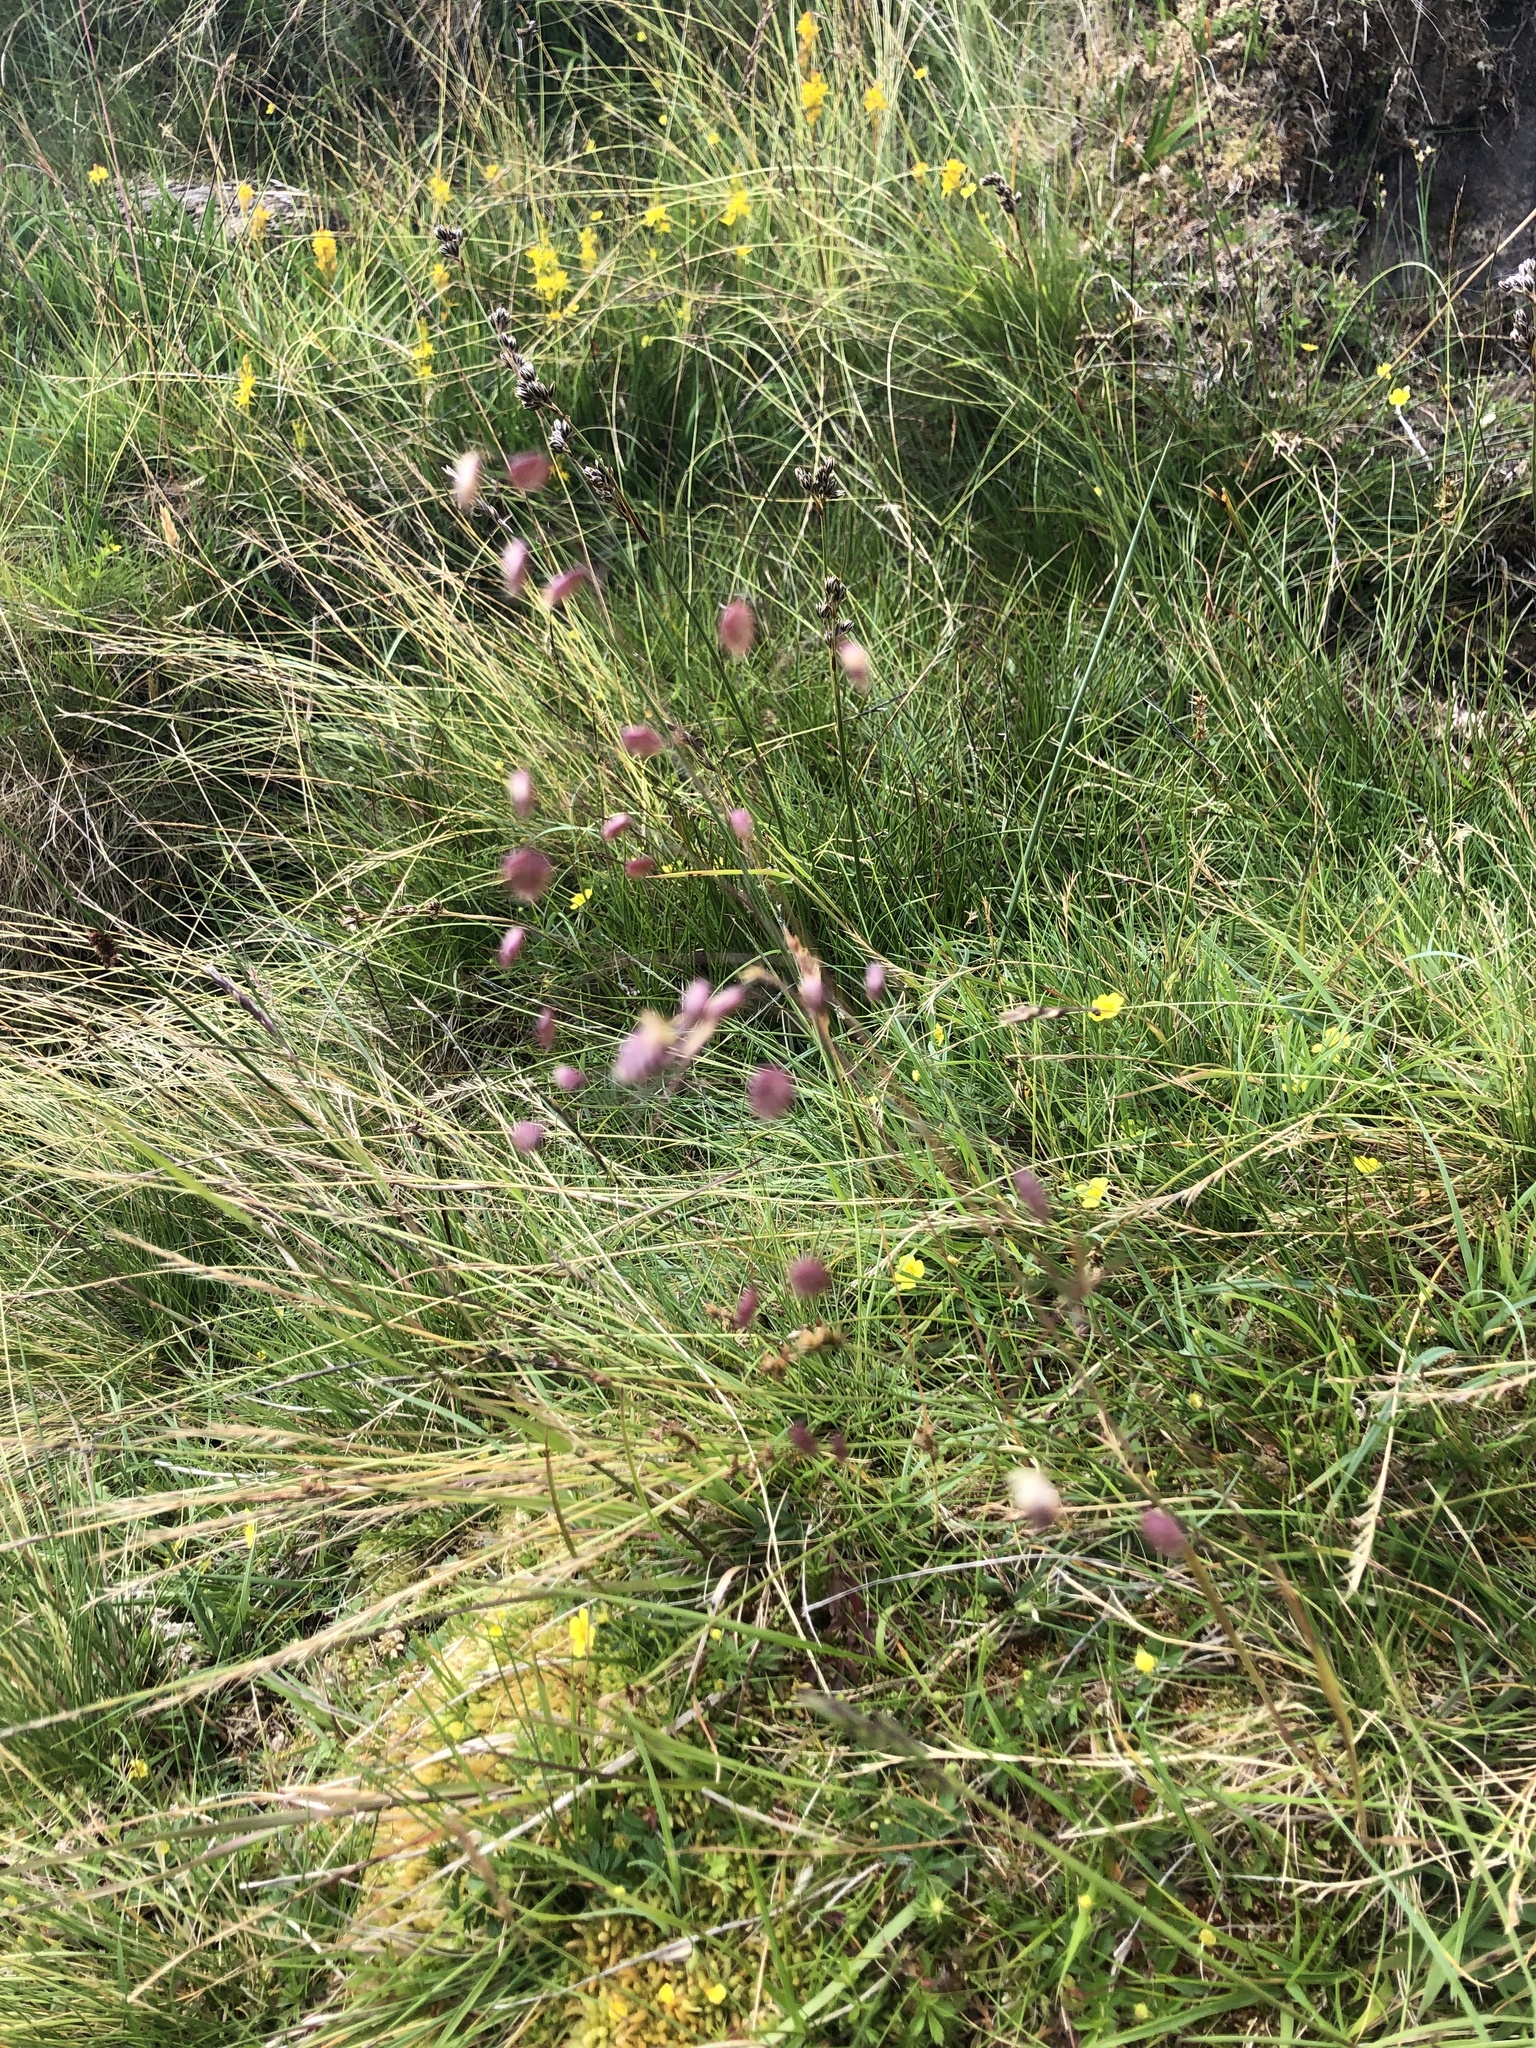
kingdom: Plantae
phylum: Tracheophyta
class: Liliopsida
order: Poales
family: Poaceae
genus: Briza
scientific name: Briza media
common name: Quaking grass
